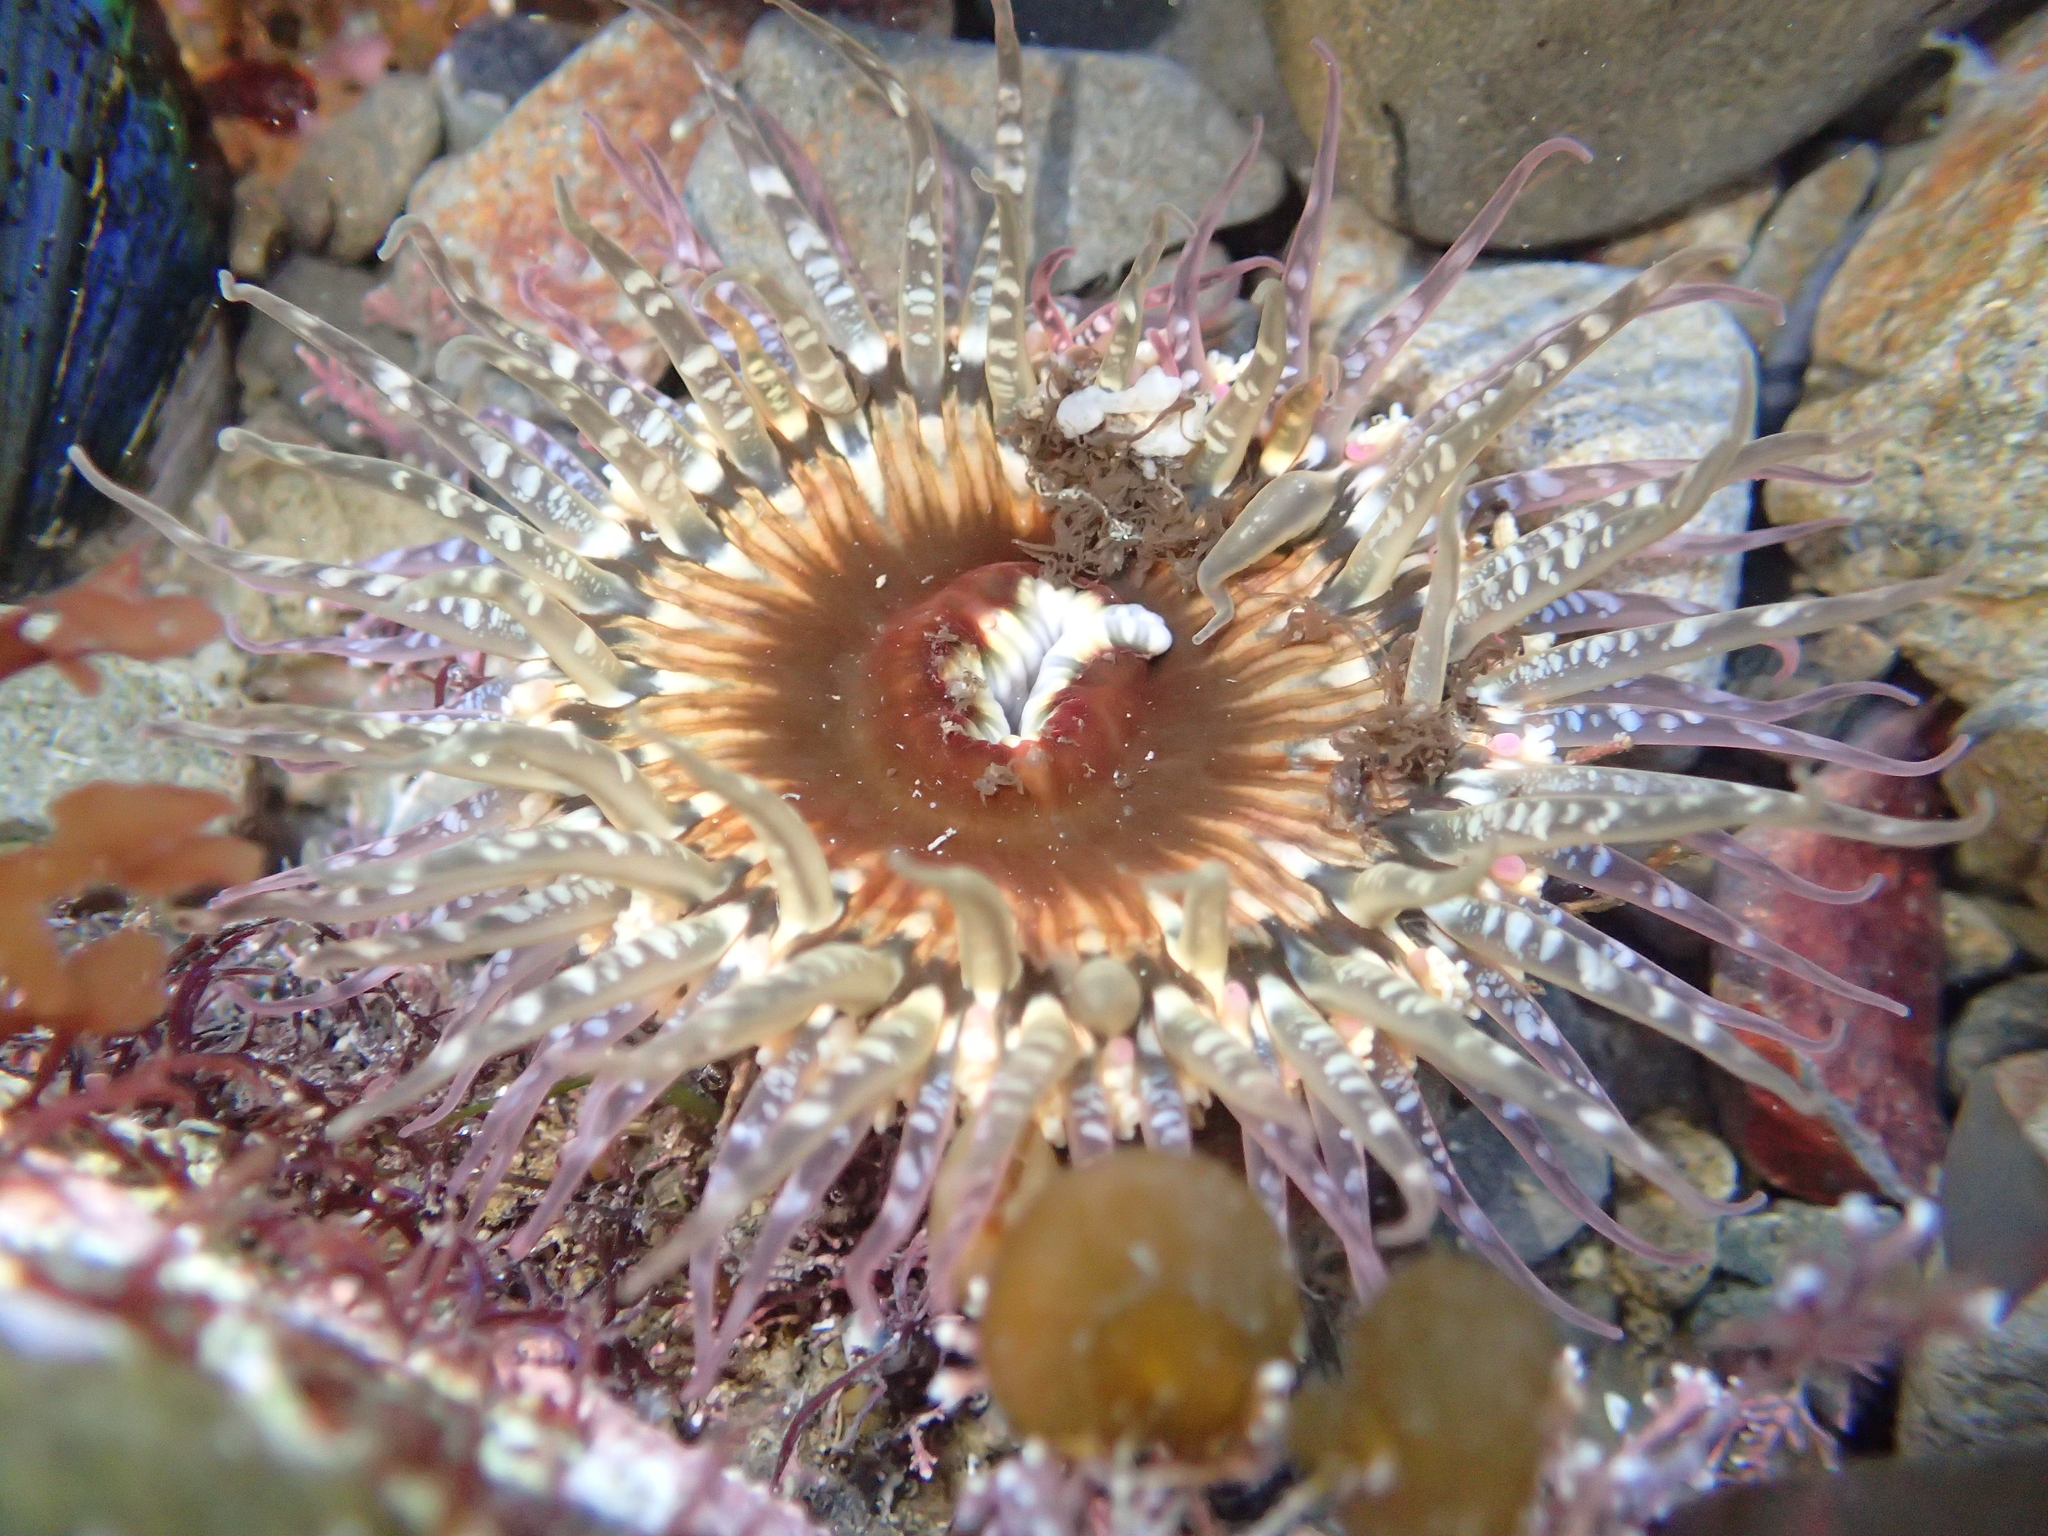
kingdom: Animalia
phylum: Cnidaria
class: Anthozoa
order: Actiniaria
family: Actiniidae
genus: Oulactis
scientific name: Oulactis muscosa
